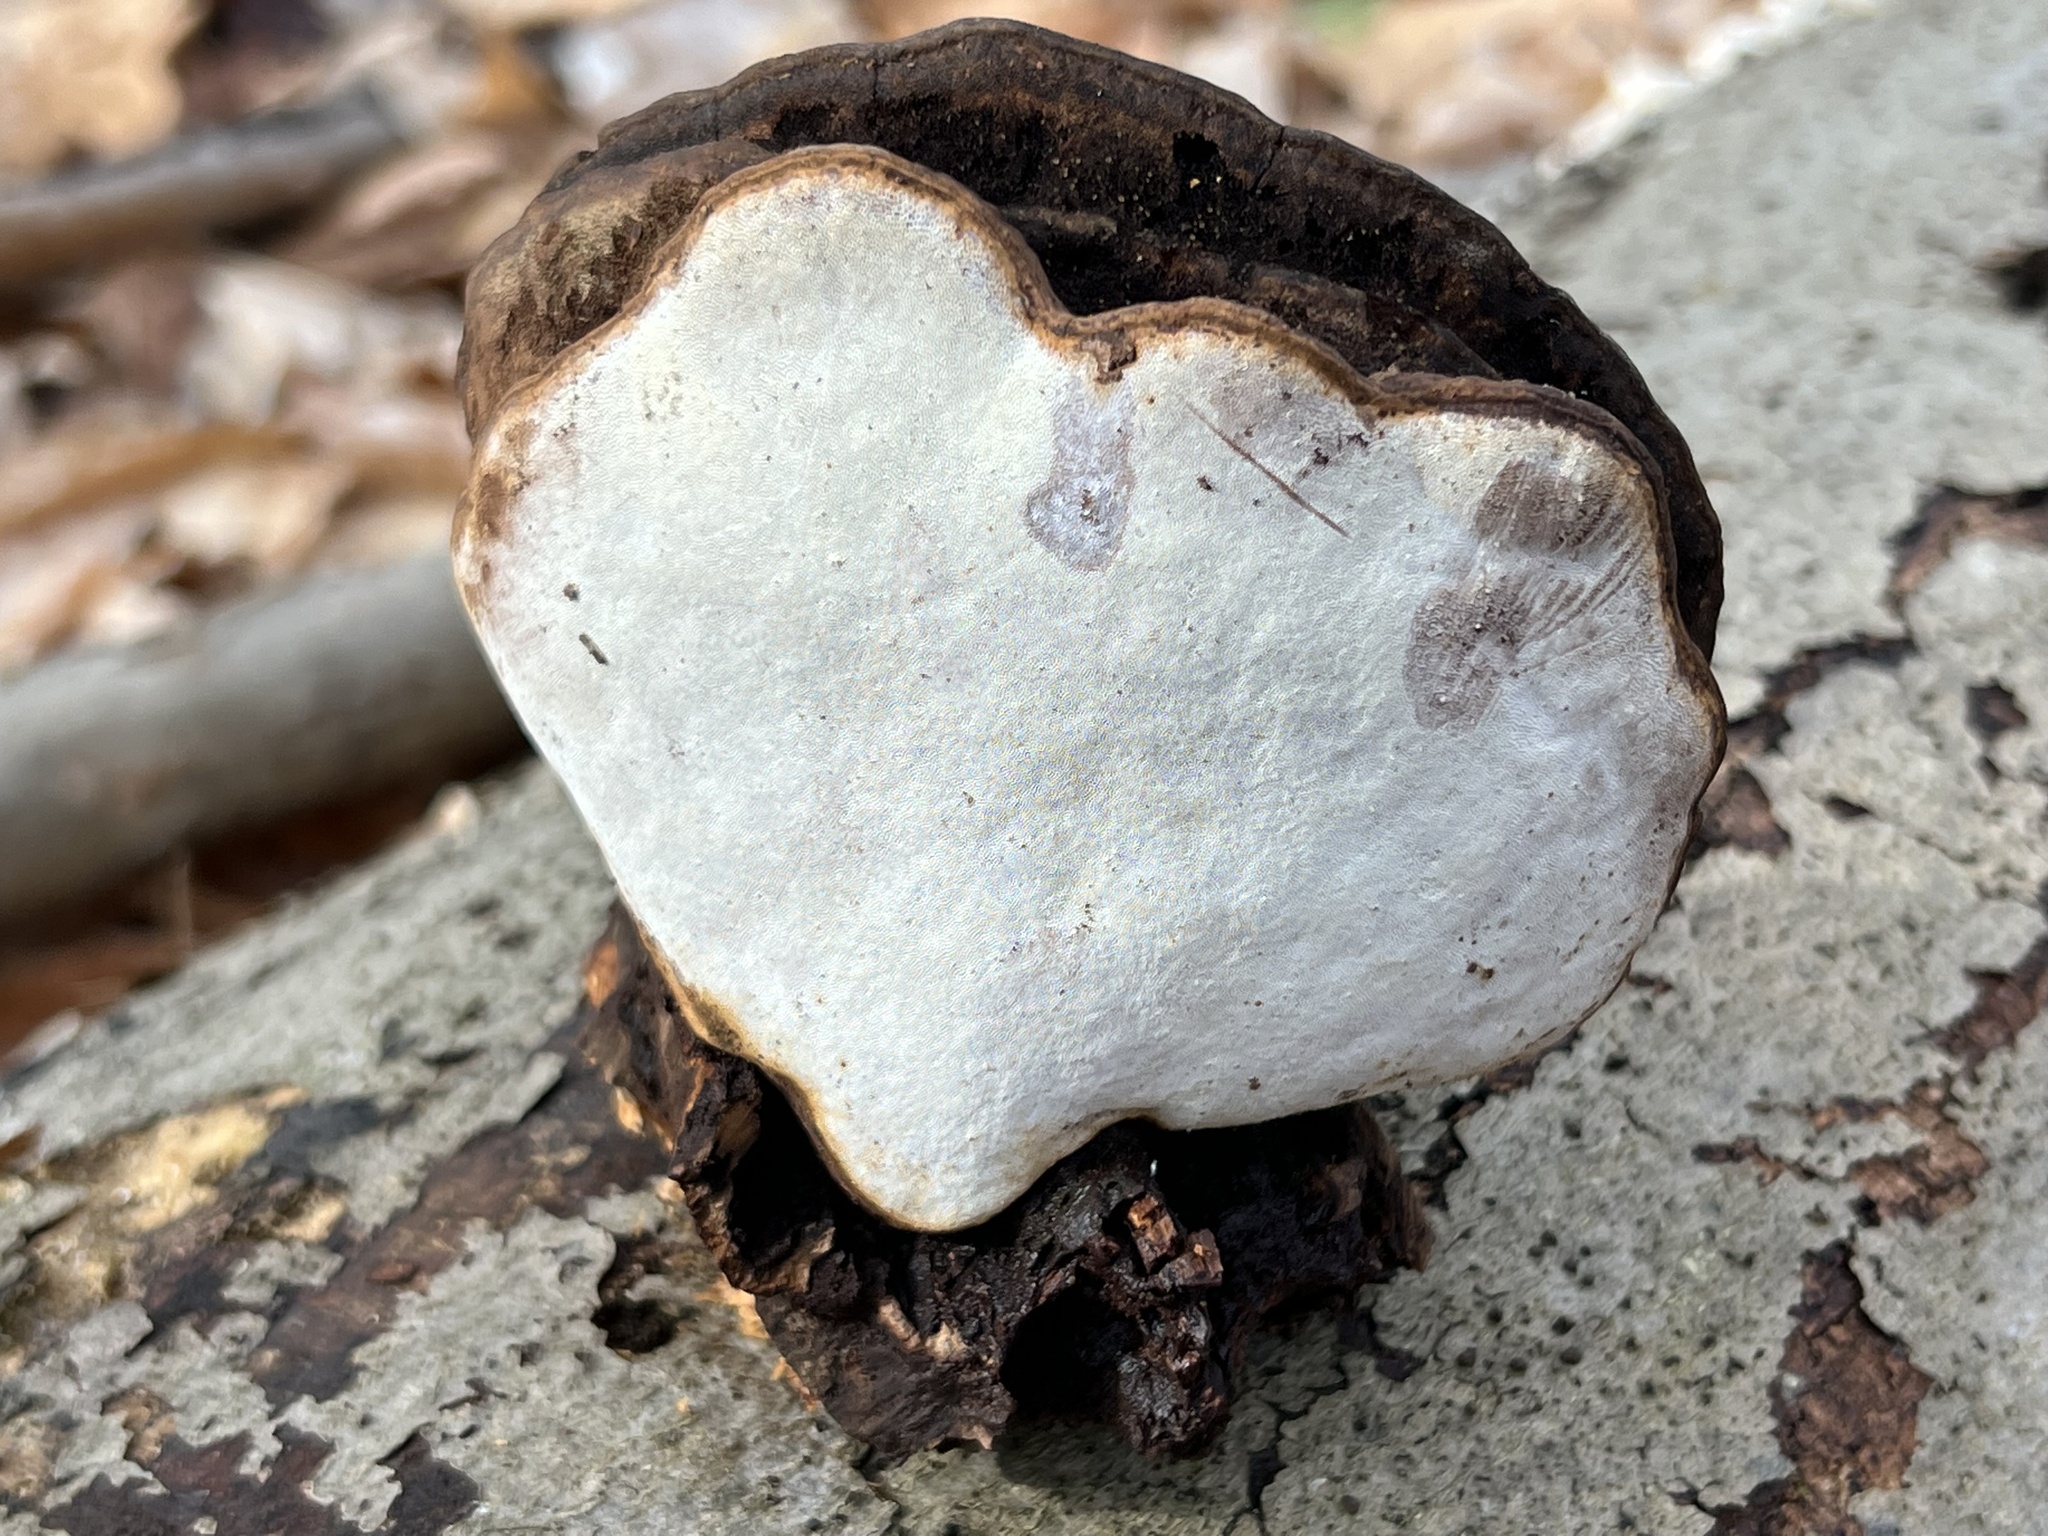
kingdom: Fungi
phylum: Basidiomycota
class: Agaricomycetes
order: Polyporales
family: Polyporaceae
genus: Ganoderma
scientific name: Ganoderma lobatum
